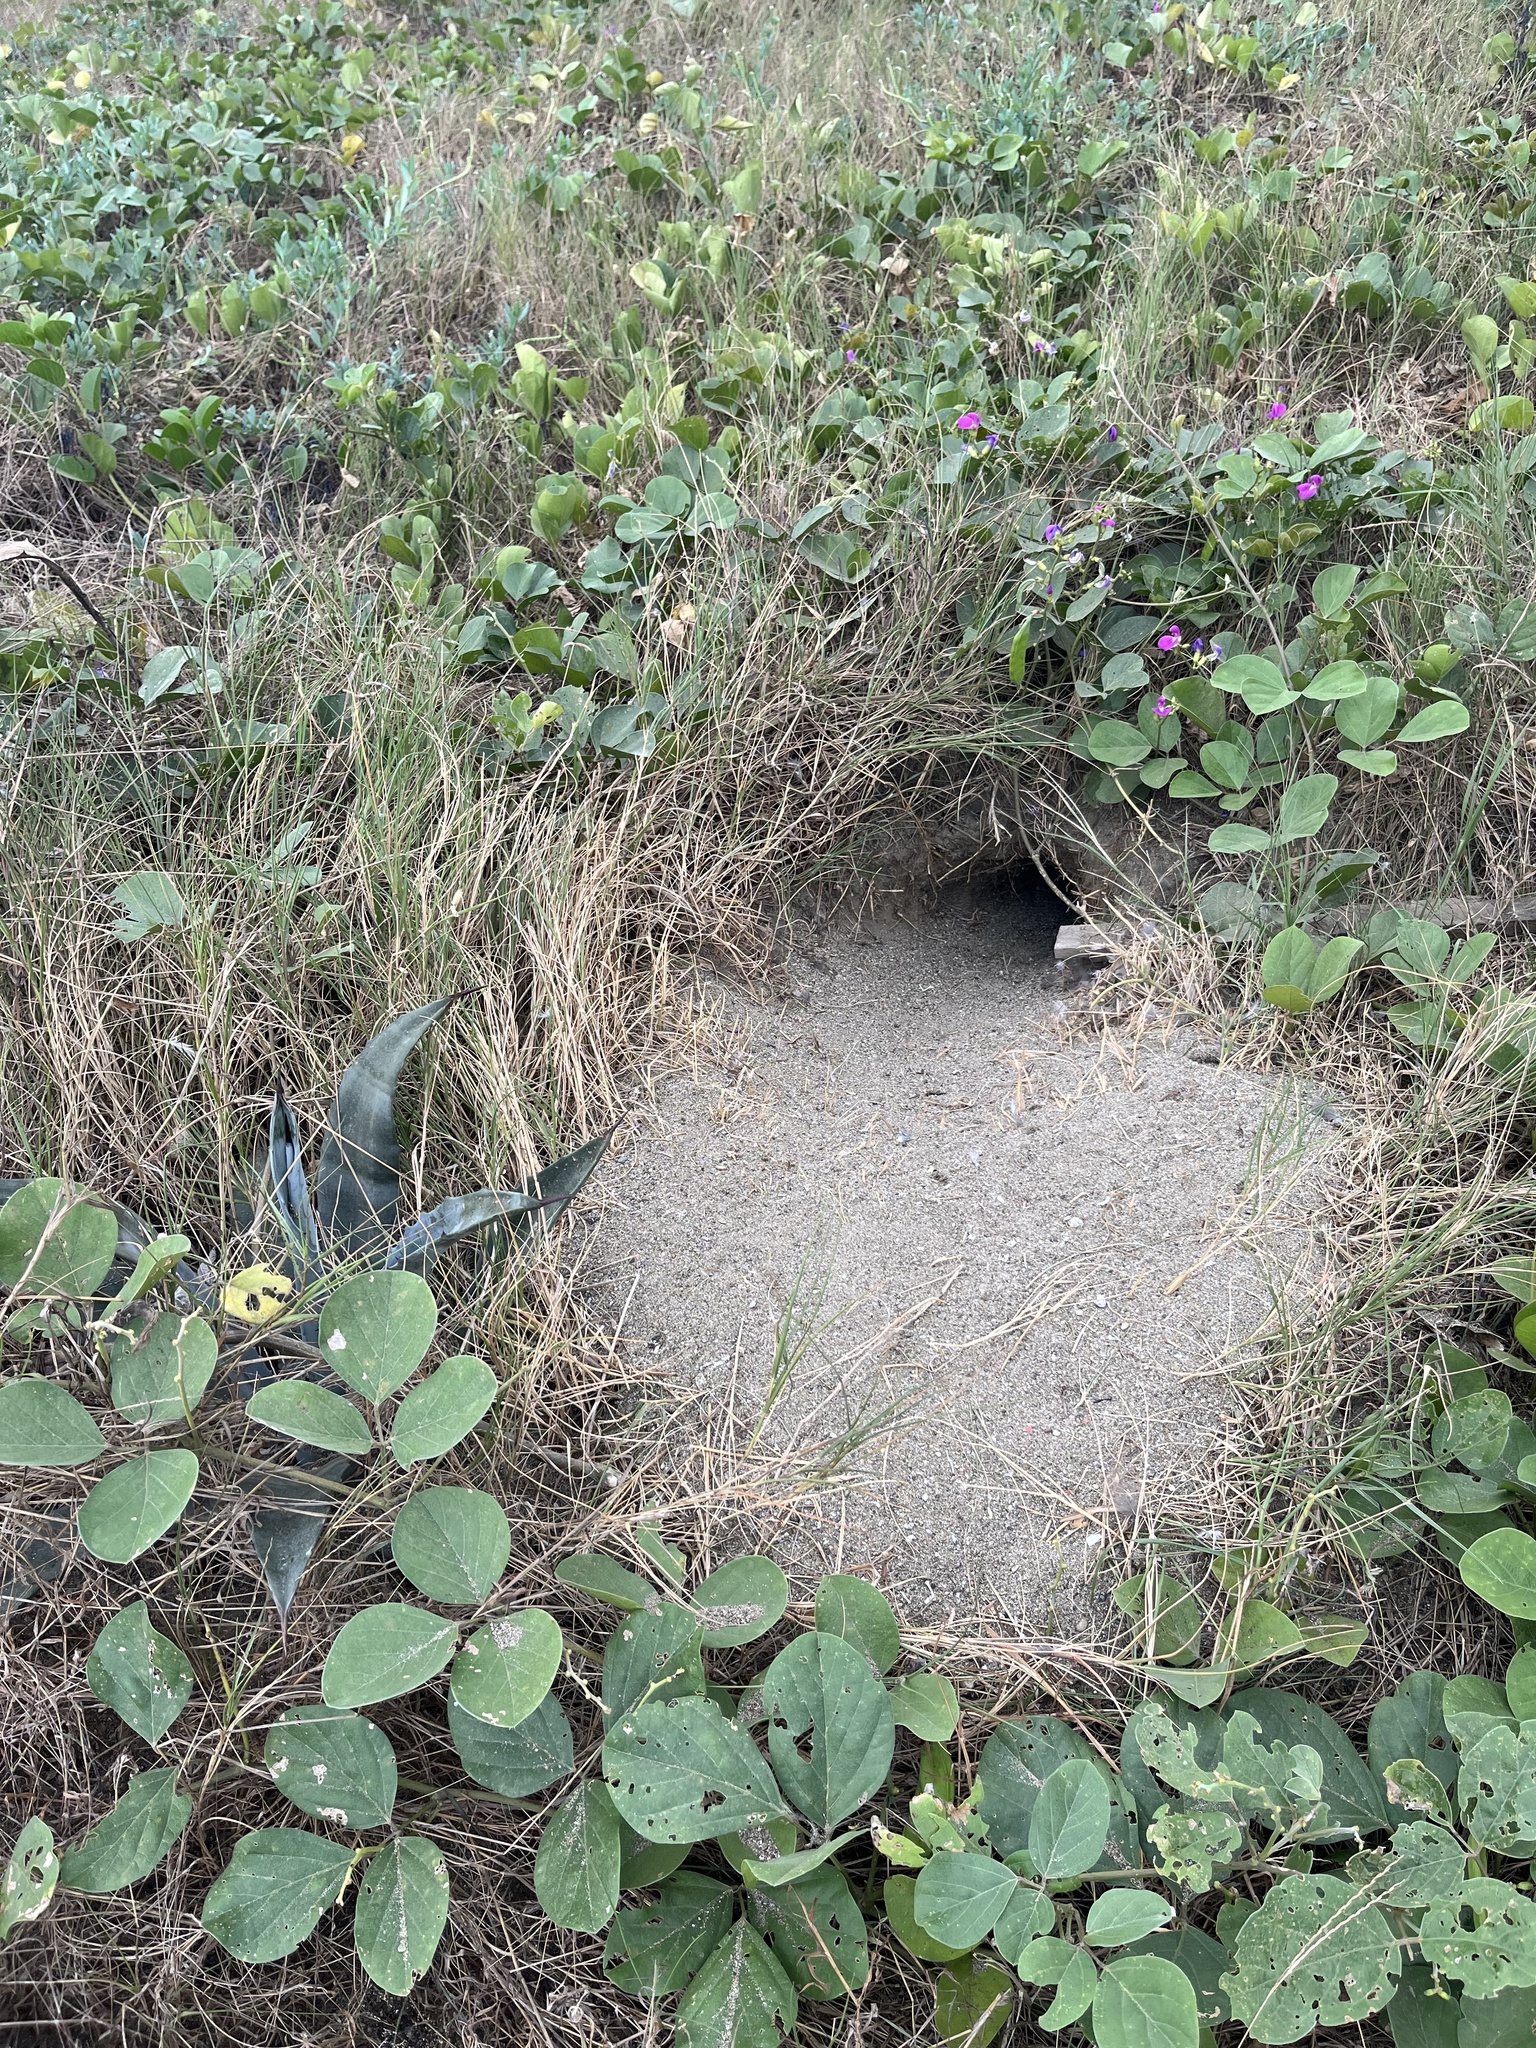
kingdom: Animalia
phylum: Chordata
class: Aves
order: Strigiformes
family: Strigidae
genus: Athene
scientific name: Athene cunicularia
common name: Burrowing owl
